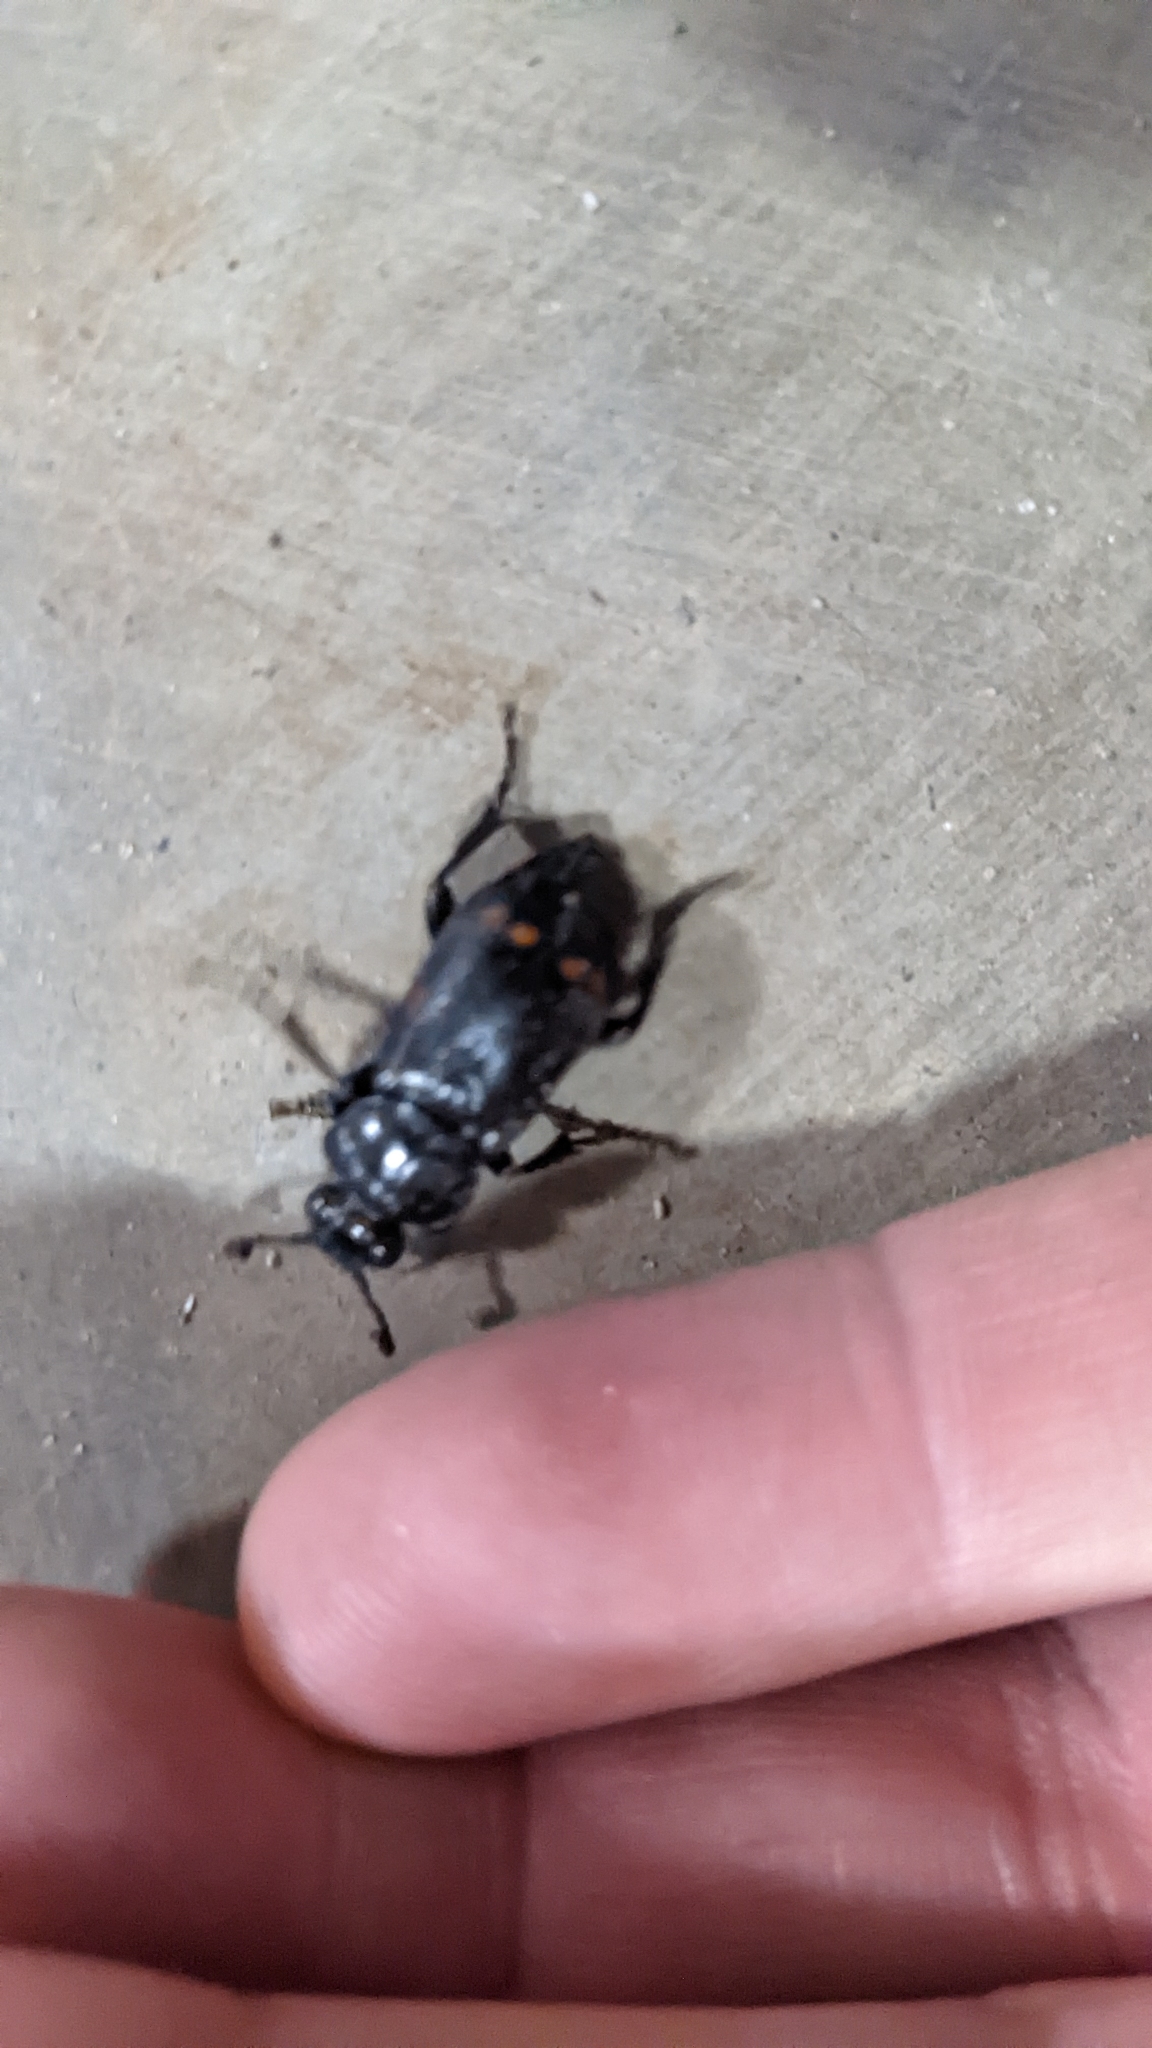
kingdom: Animalia
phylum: Arthropoda
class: Insecta
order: Coleoptera
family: Staphylinidae
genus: Nicrophorus
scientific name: Nicrophorus pustulatus
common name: Pustulated carrion beetle
